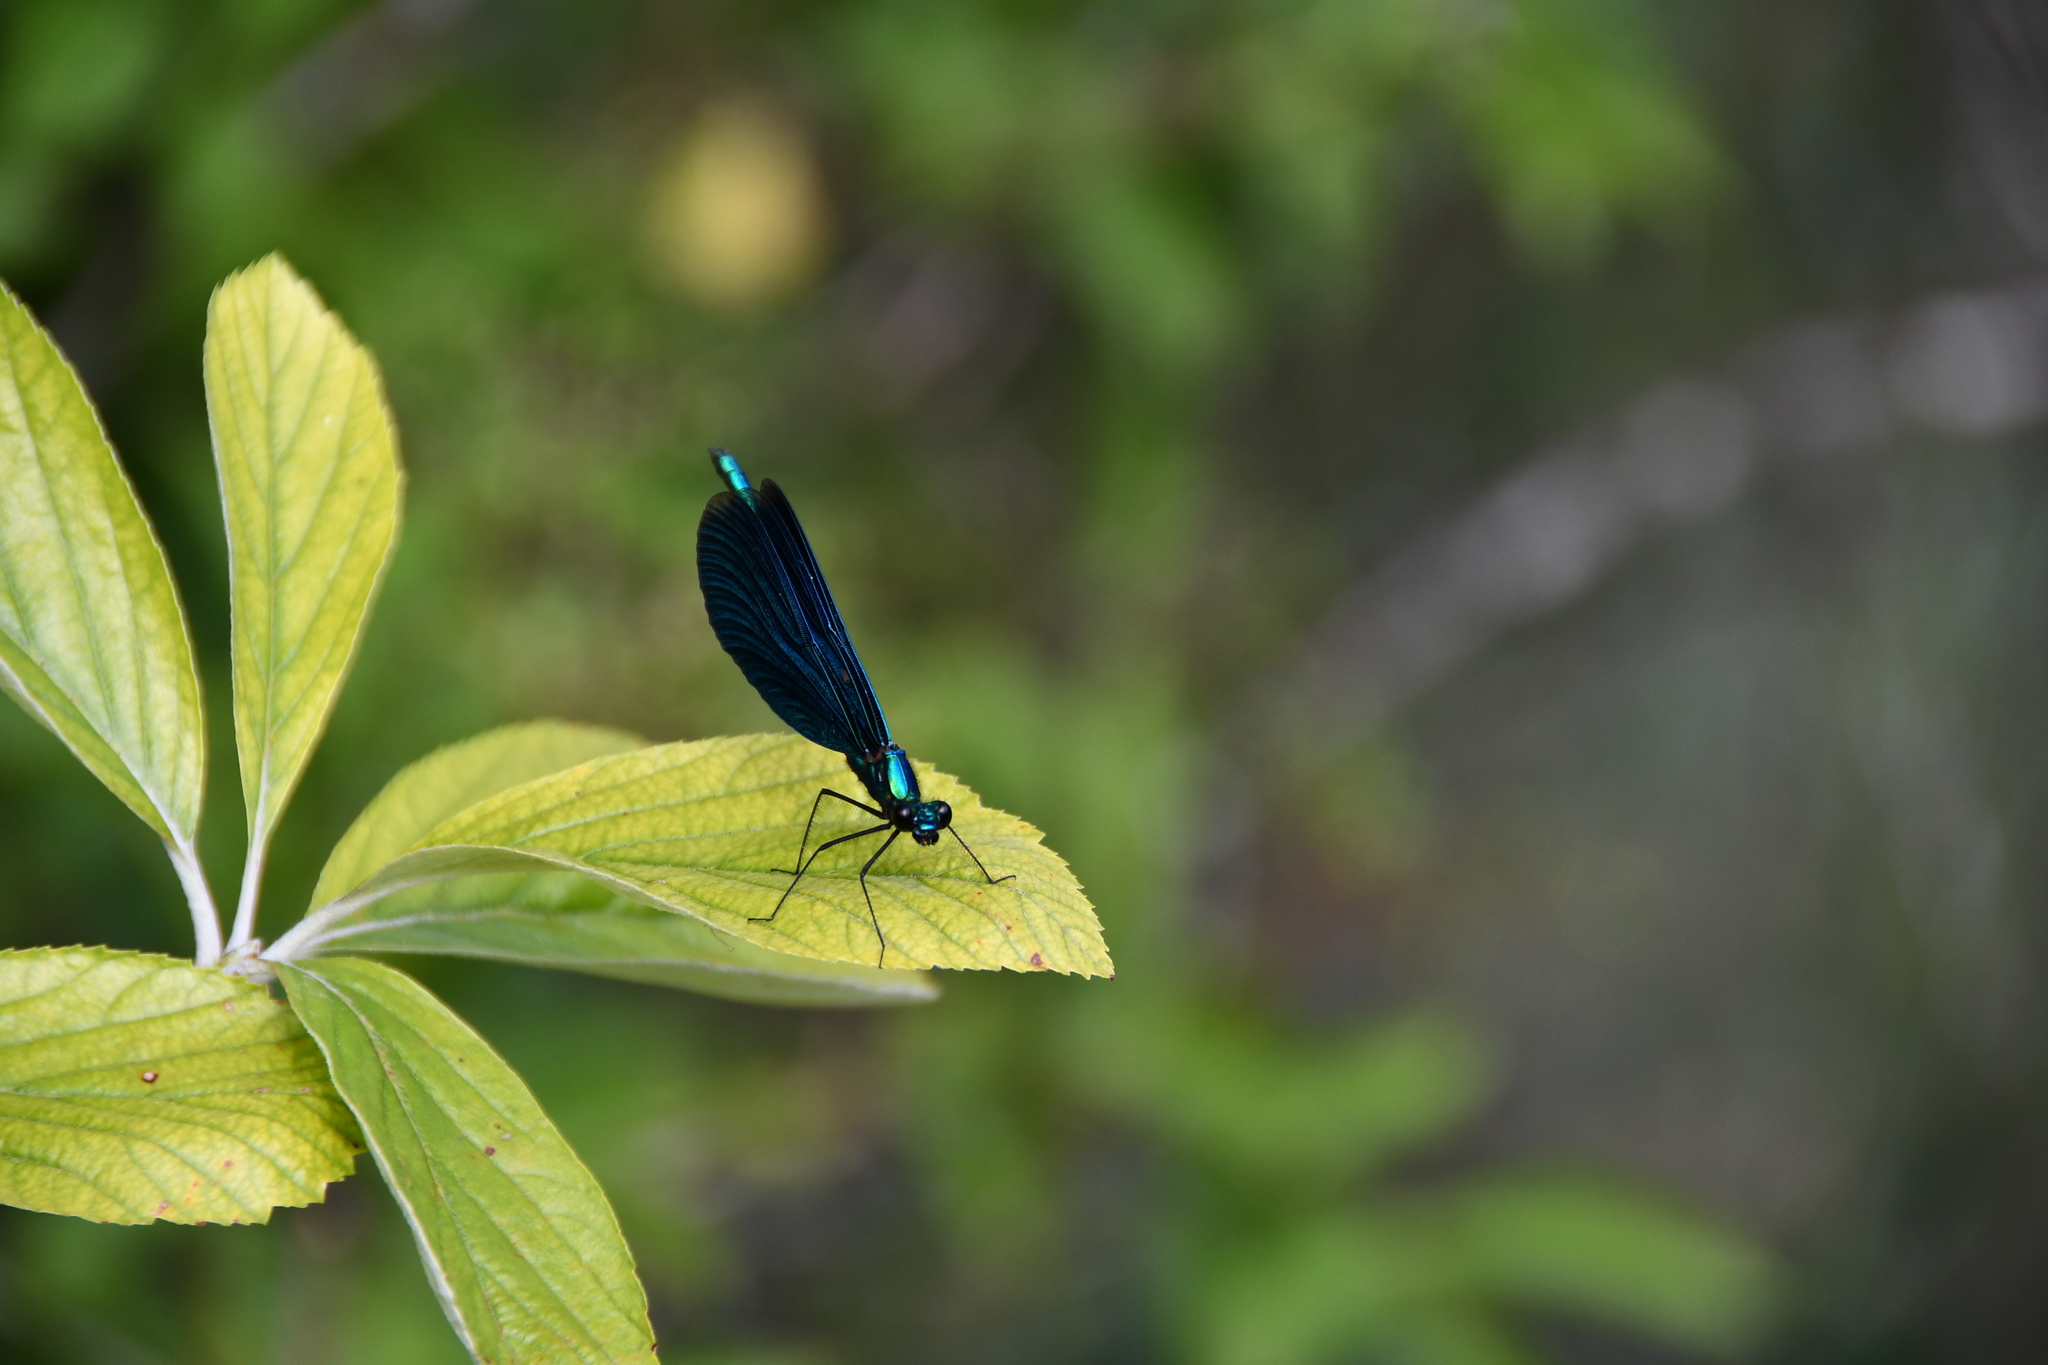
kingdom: Animalia
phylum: Arthropoda
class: Insecta
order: Odonata
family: Calopterygidae
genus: Calopteryx
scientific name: Calopteryx virgo
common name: Beautiful demoiselle
